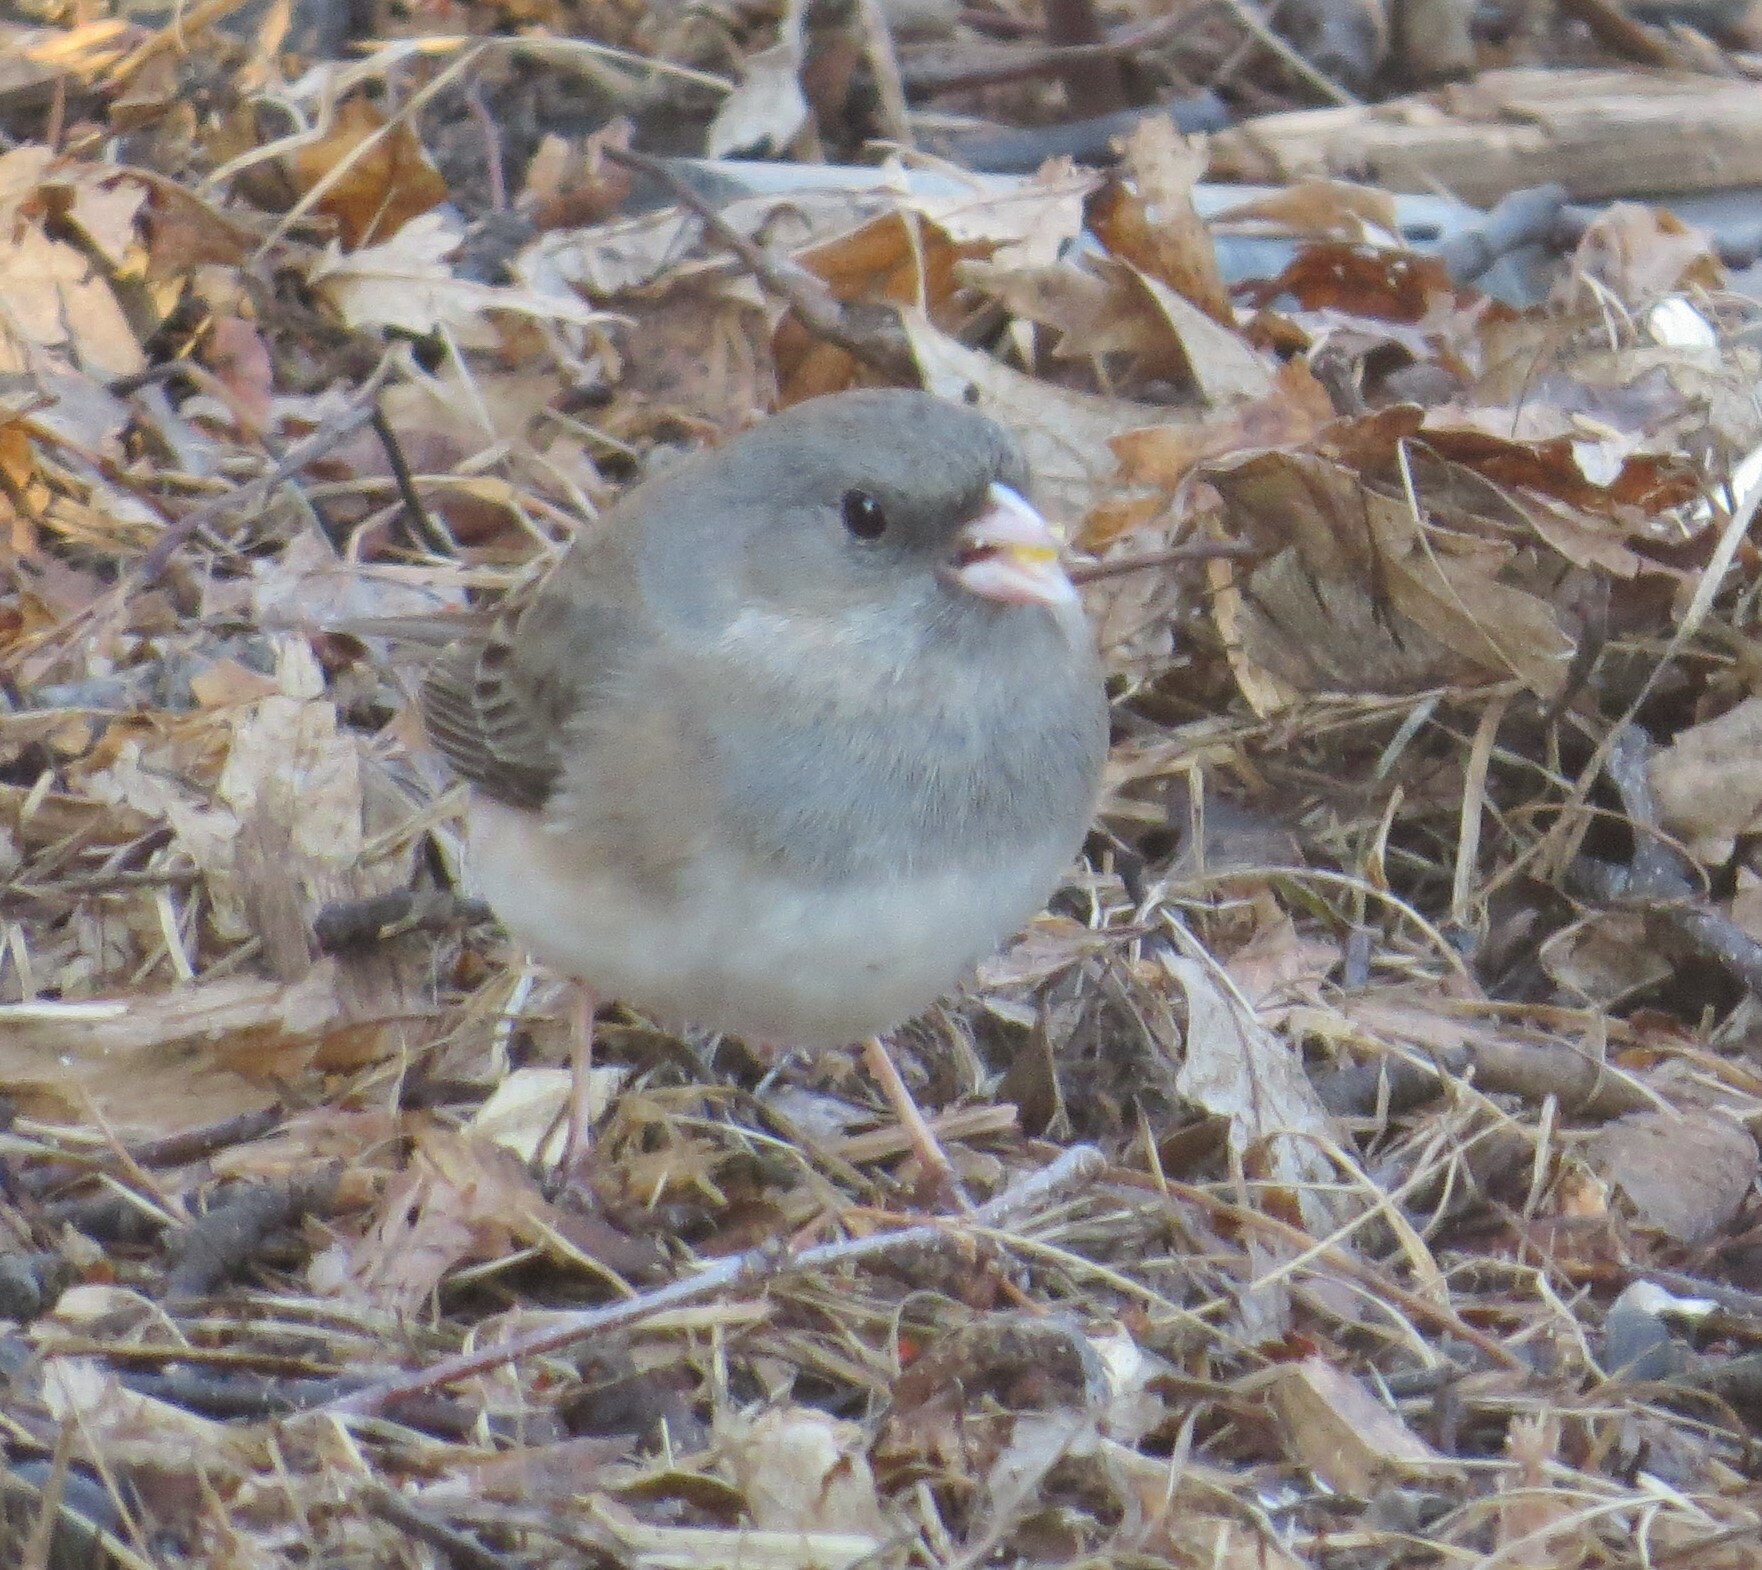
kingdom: Animalia
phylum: Chordata
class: Aves
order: Passeriformes
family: Passerellidae
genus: Junco
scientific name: Junco hyemalis
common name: Dark-eyed junco
